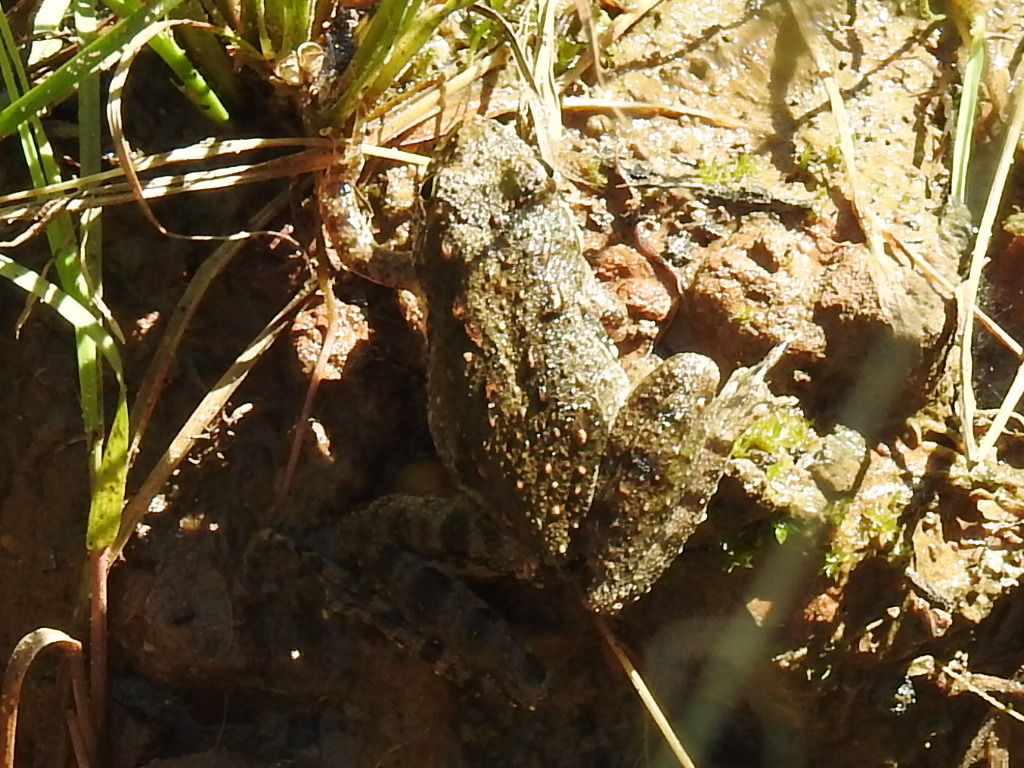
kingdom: Animalia
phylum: Chordata
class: Amphibia
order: Anura
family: Hylidae
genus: Acris
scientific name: Acris blanchardi
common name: Blanchard's cricket frog
